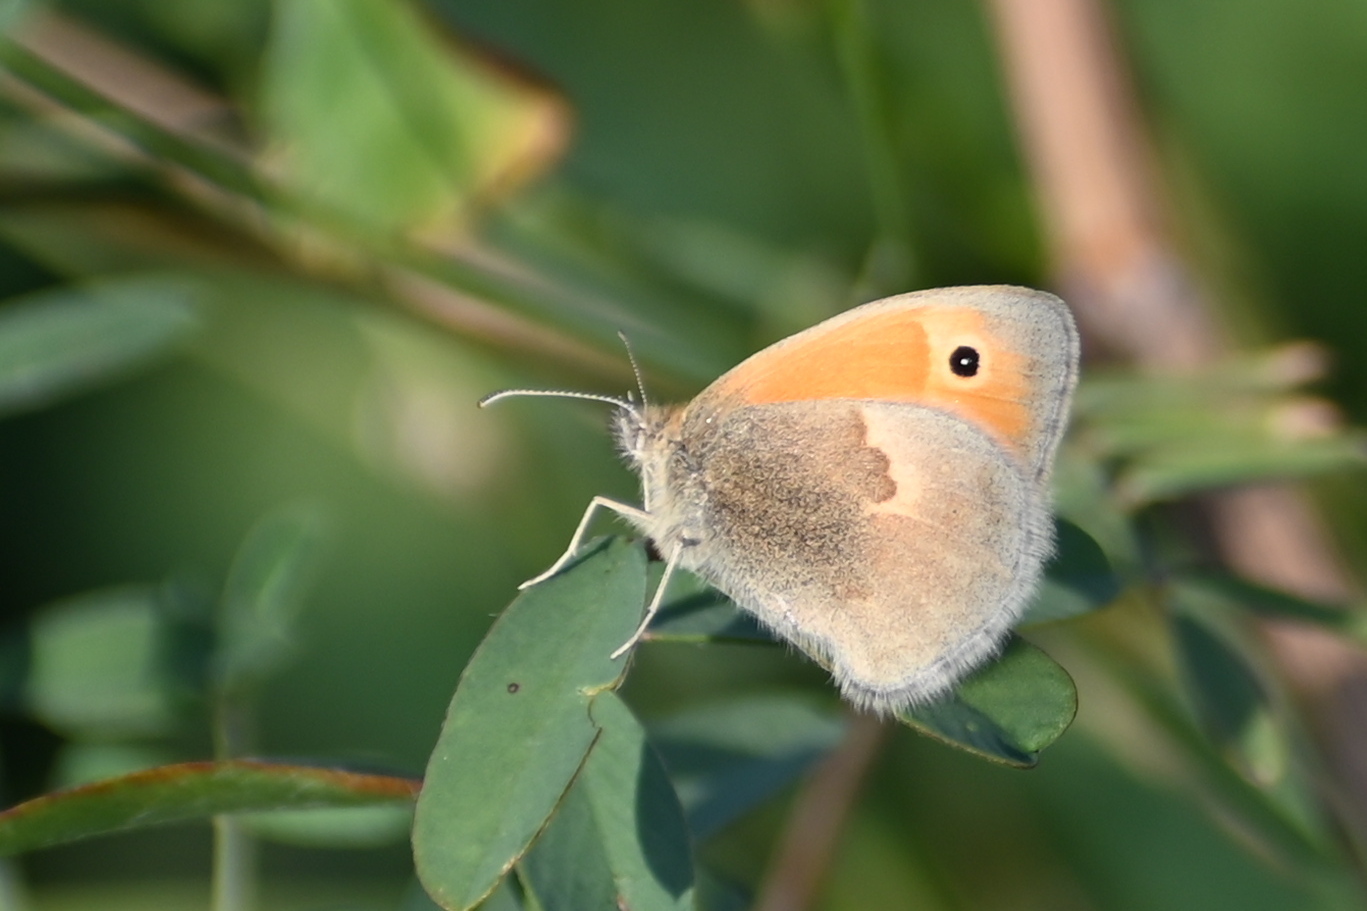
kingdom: Animalia
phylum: Arthropoda
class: Insecta
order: Lepidoptera
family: Nymphalidae
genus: Coenonympha
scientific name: Coenonympha pamphilus
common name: Small heath
